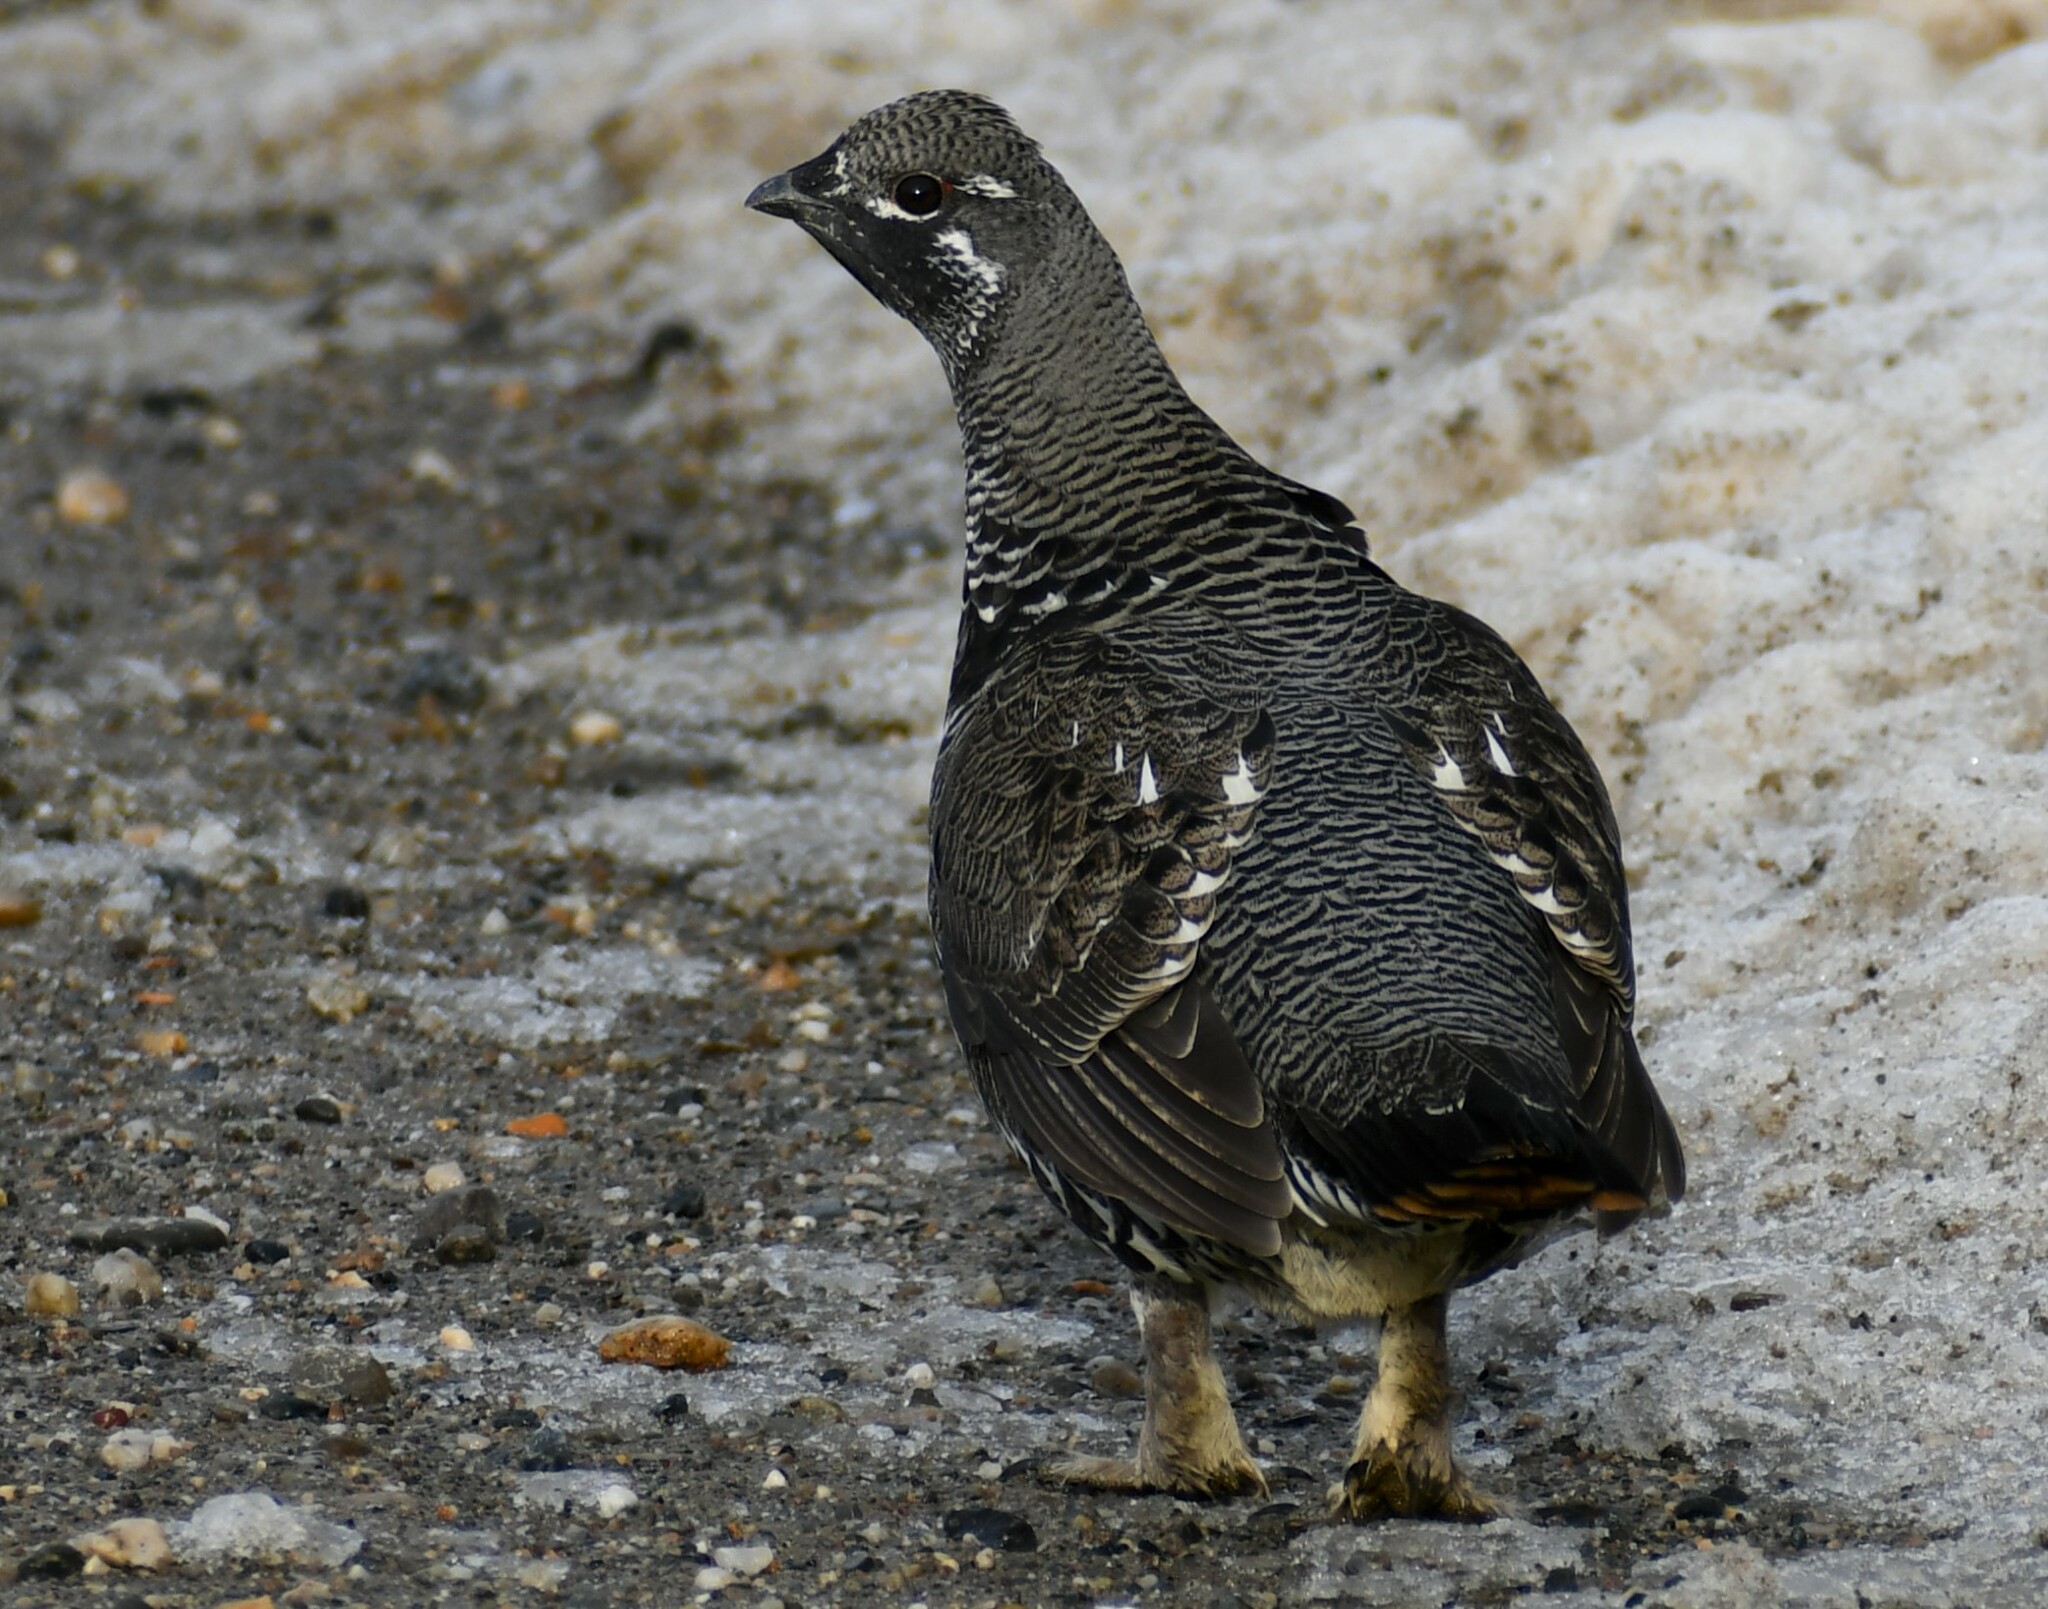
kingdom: Animalia
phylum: Chordata
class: Aves
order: Galliformes
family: Phasianidae
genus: Canachites
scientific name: Canachites canadensis
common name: Spruce grouse
